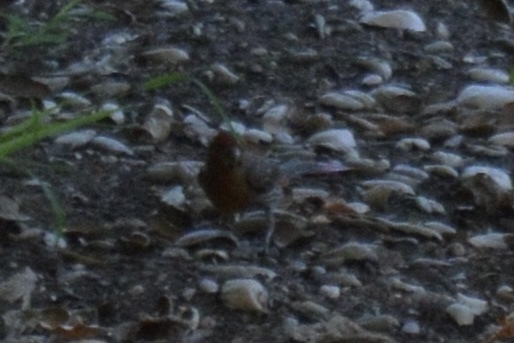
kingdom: Animalia
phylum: Chordata
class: Aves
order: Passeriformes
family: Fringillidae
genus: Haemorhous
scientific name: Haemorhous mexicanus
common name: House finch
